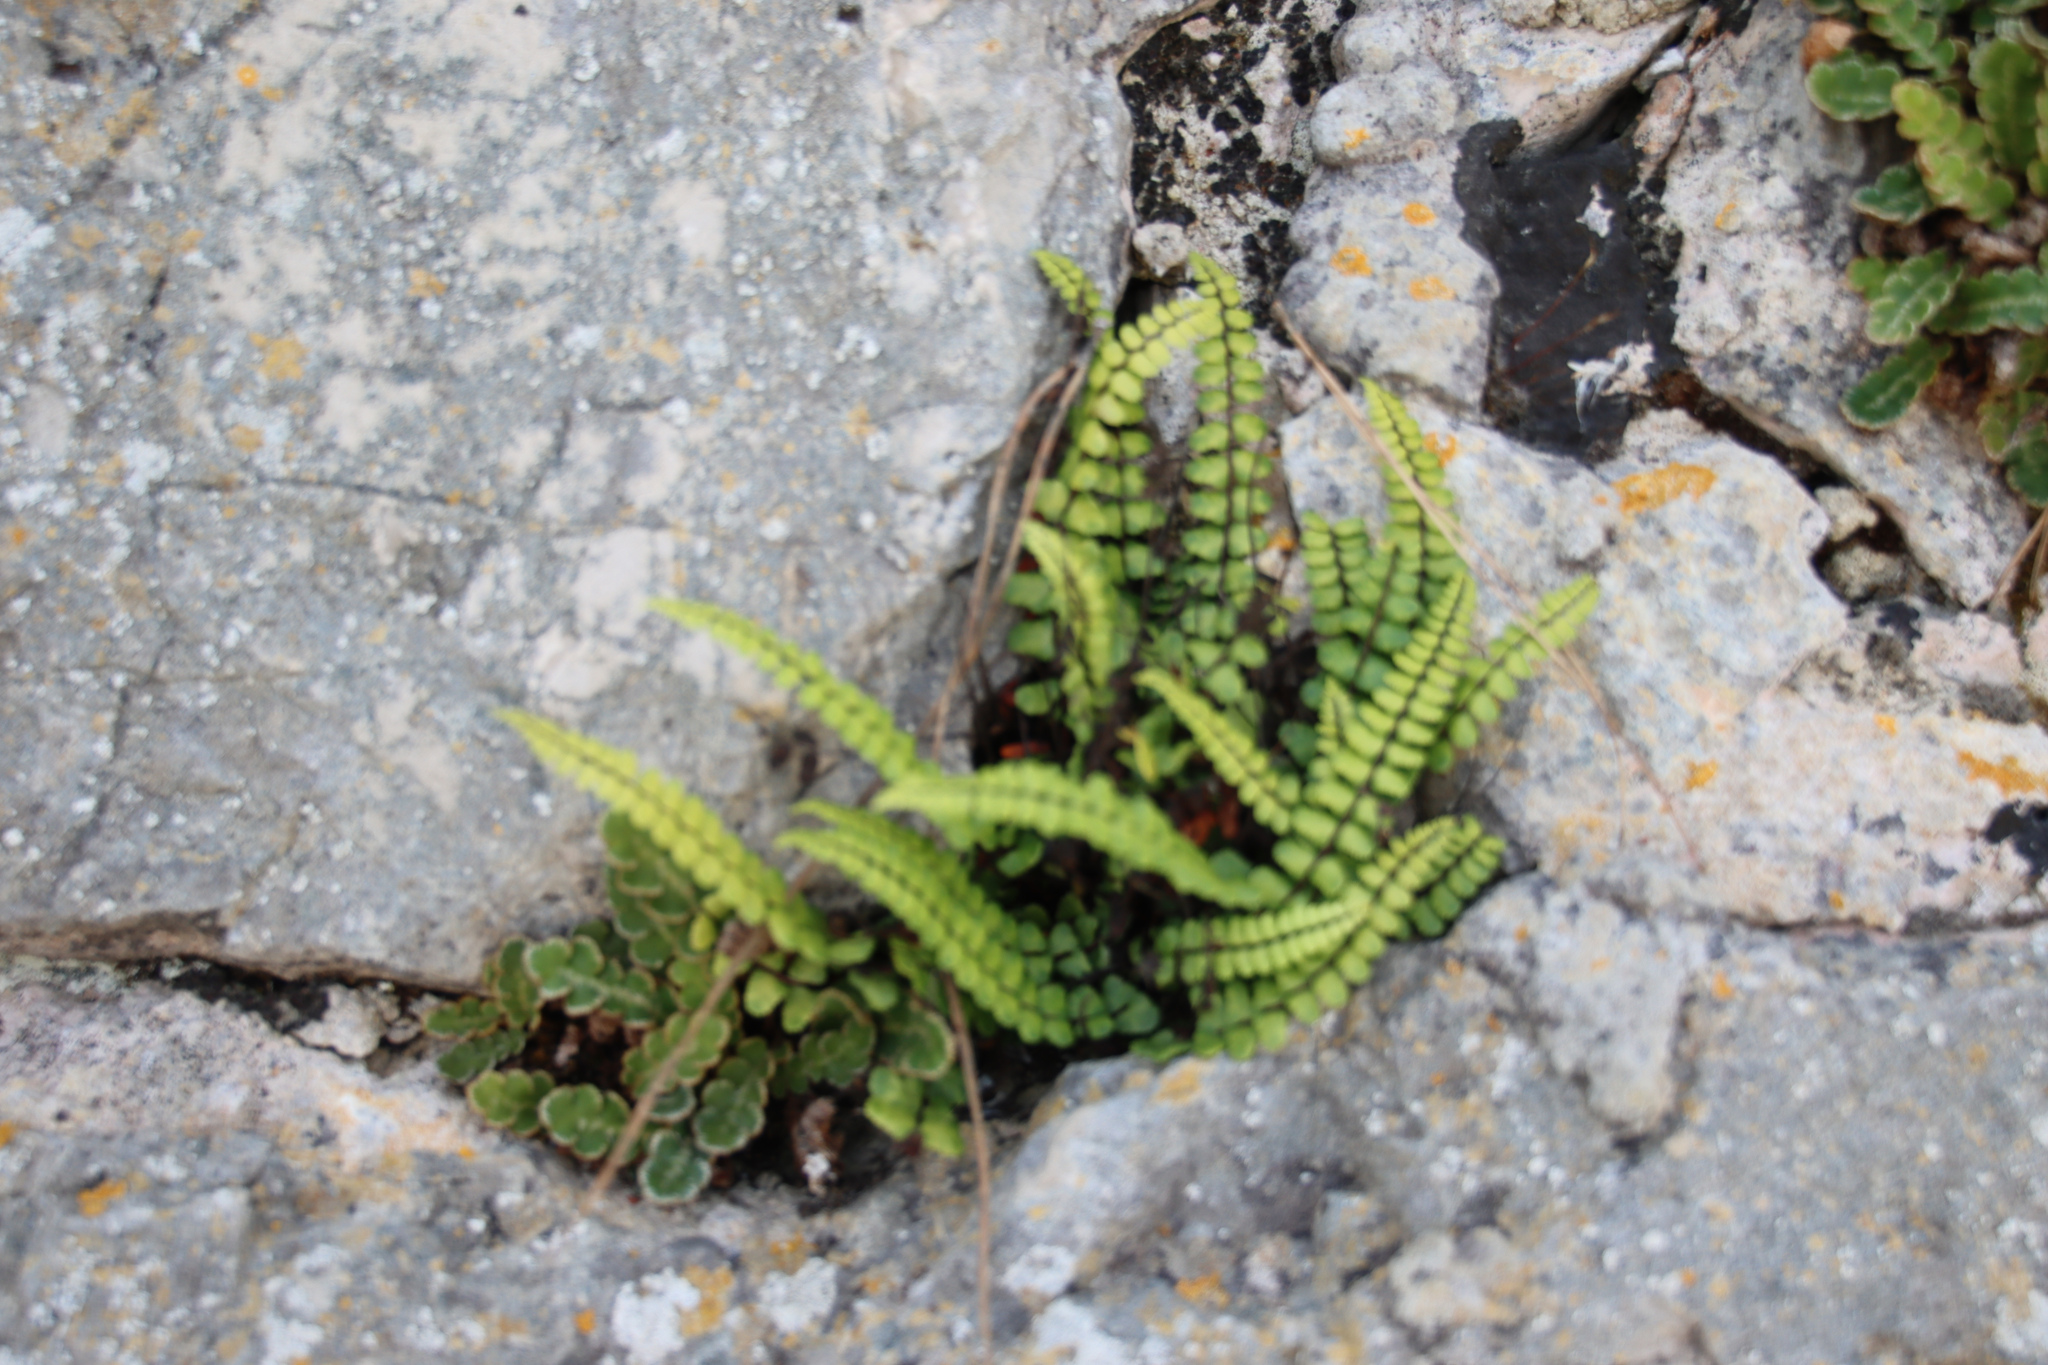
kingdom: Plantae
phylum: Tracheophyta
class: Polypodiopsida
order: Polypodiales
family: Aspleniaceae
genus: Asplenium
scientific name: Asplenium trichomanes
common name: Maidenhair spleenwort
